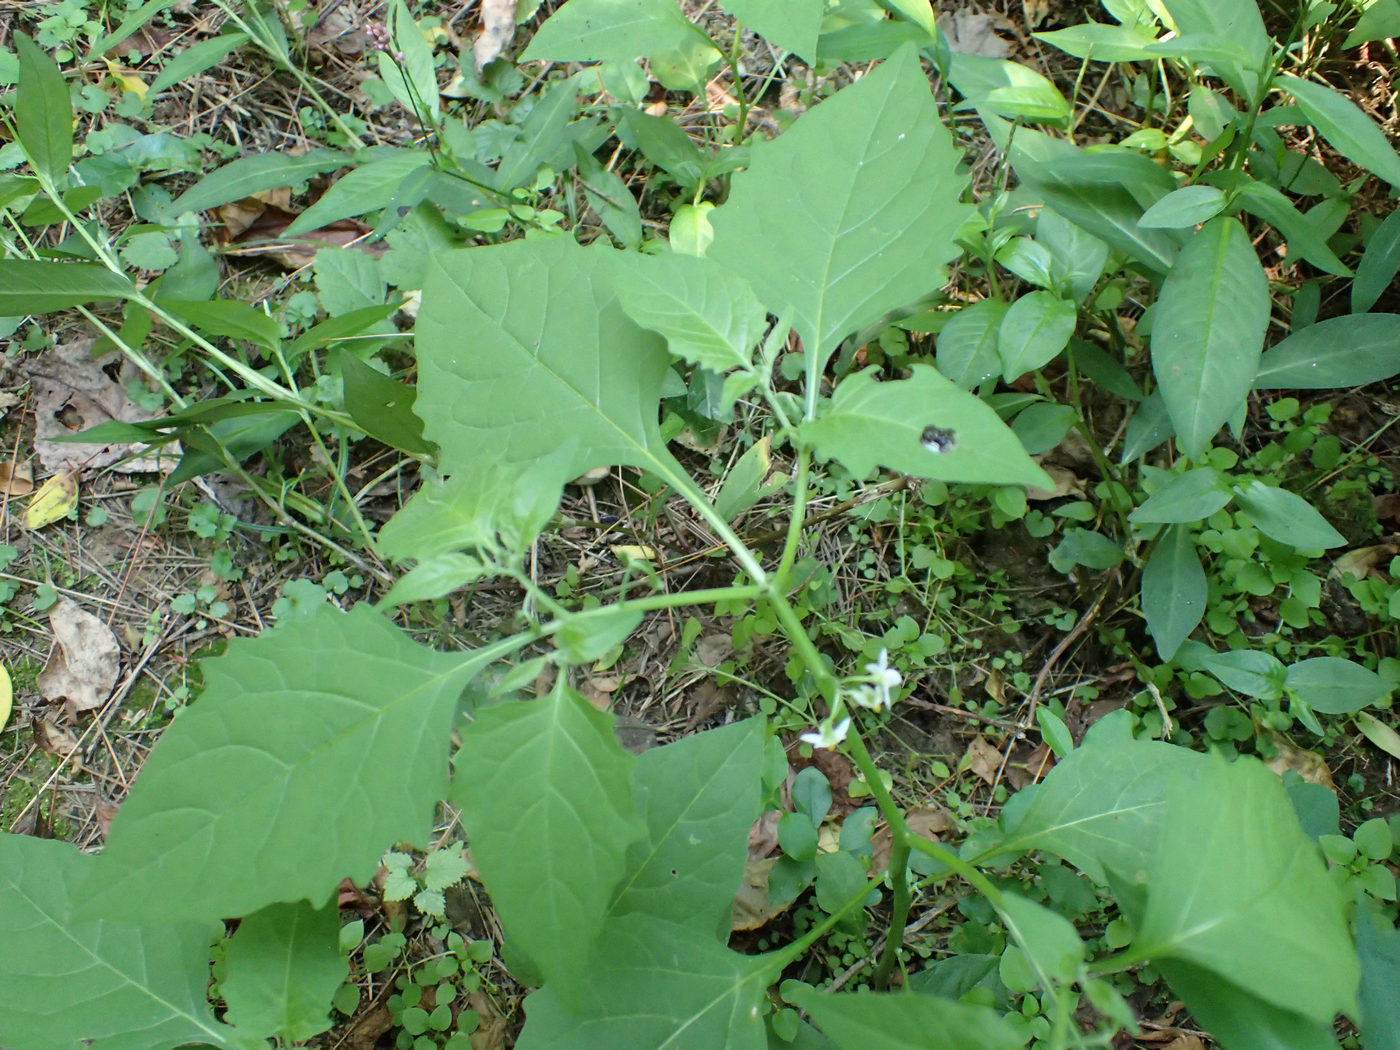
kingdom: Plantae
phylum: Tracheophyta
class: Magnoliopsida
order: Solanales
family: Solanaceae
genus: Solanum
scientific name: Solanum emulans
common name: Eastern black nightshade
